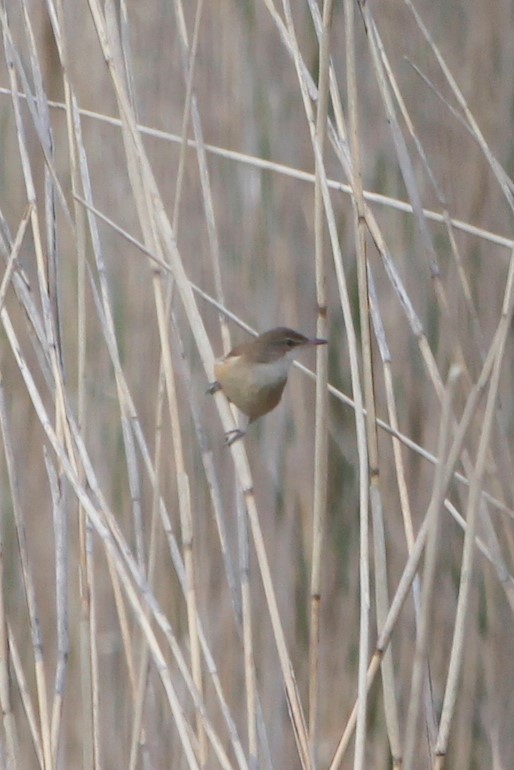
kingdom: Animalia
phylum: Chordata
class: Aves
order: Passeriformes
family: Acrocephalidae
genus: Acrocephalus
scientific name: Acrocephalus arundinaceus
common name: Great reed warbler
